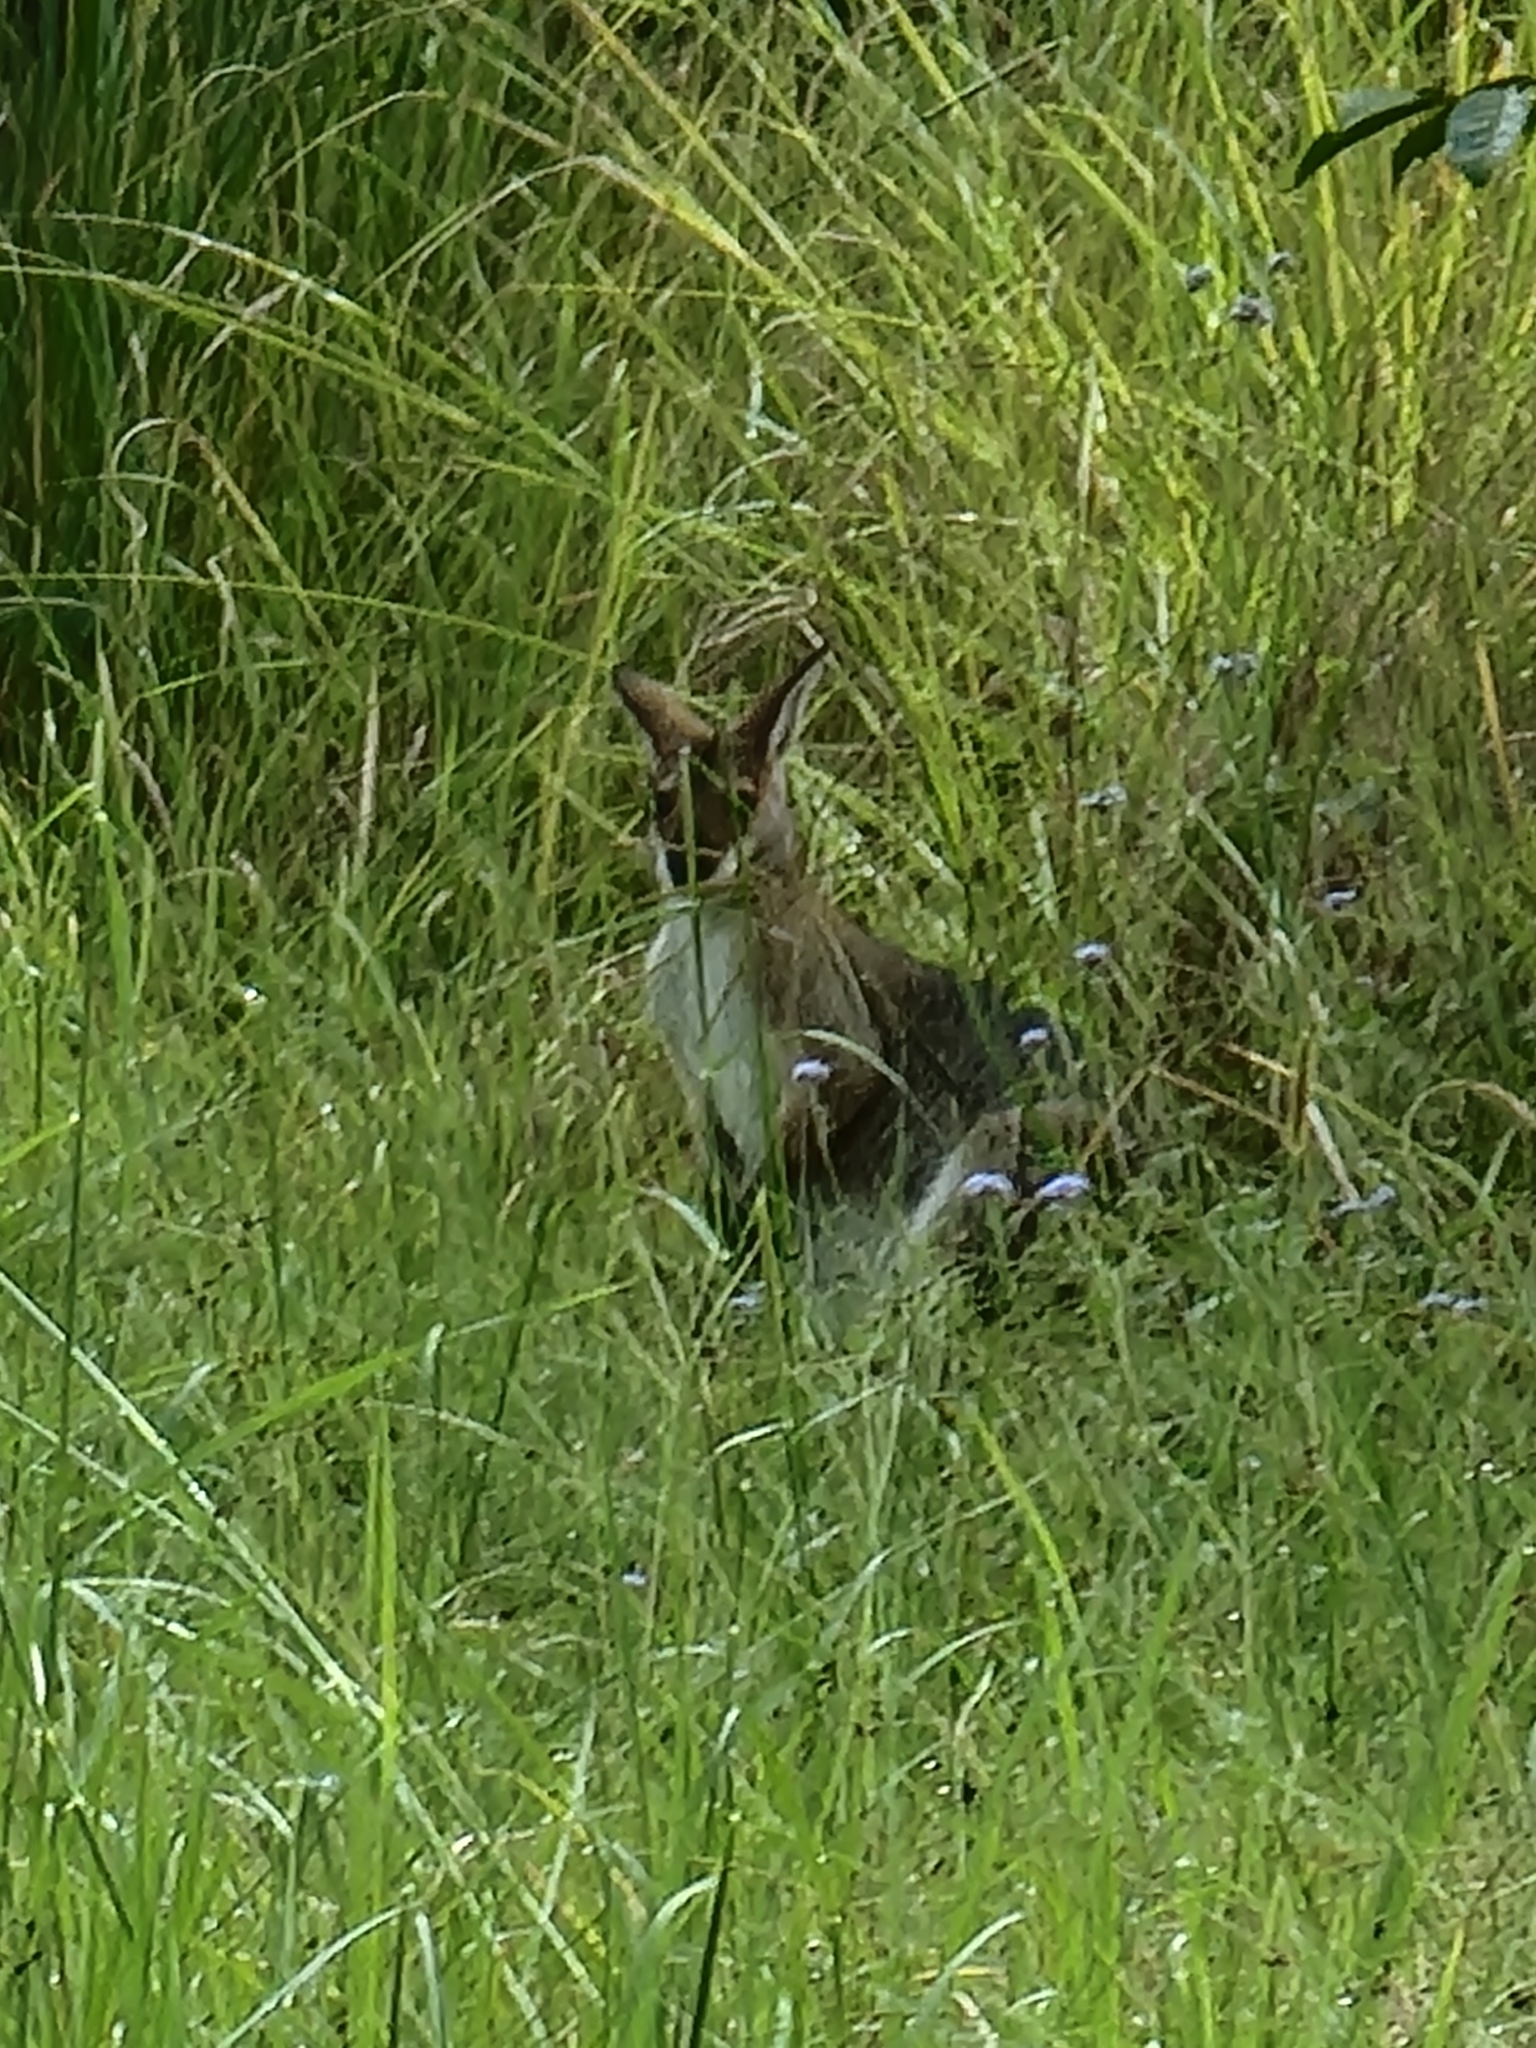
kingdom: Animalia
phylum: Chordata
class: Mammalia
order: Diprotodontia
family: Macropodidae
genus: Notamacropus
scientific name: Notamacropus rufogriseus
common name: Red-necked wallaby
